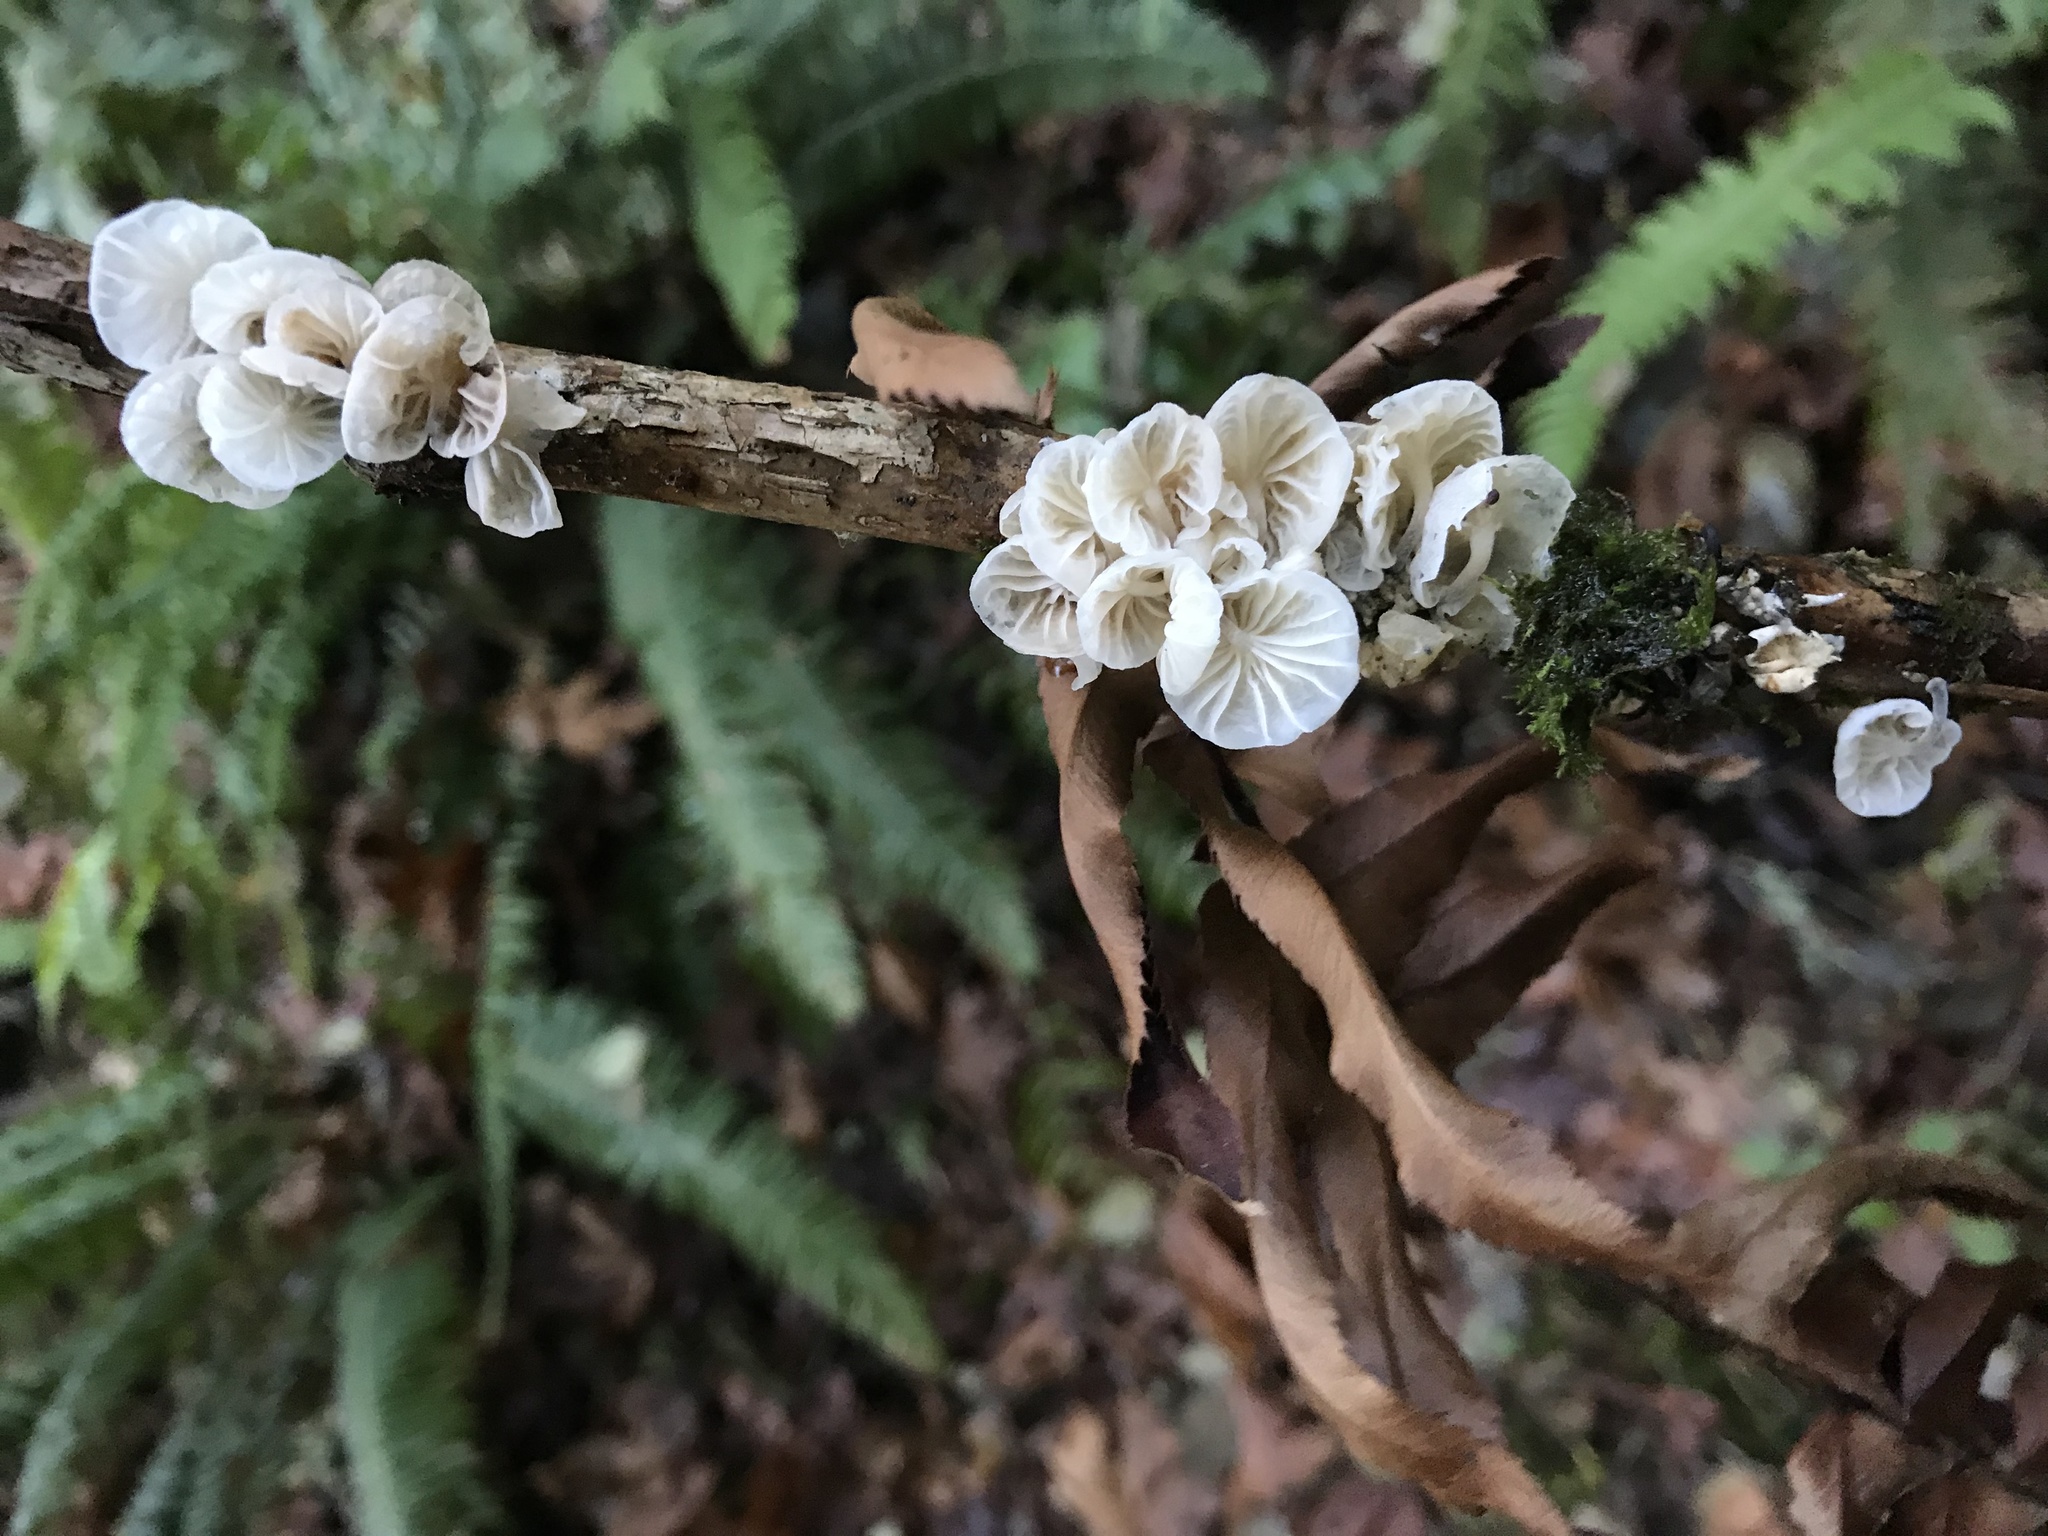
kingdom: Fungi
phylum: Basidiomycota
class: Agaricomycetes
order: Agaricales
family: Omphalotaceae
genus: Marasmiellus
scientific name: Marasmiellus candidus
